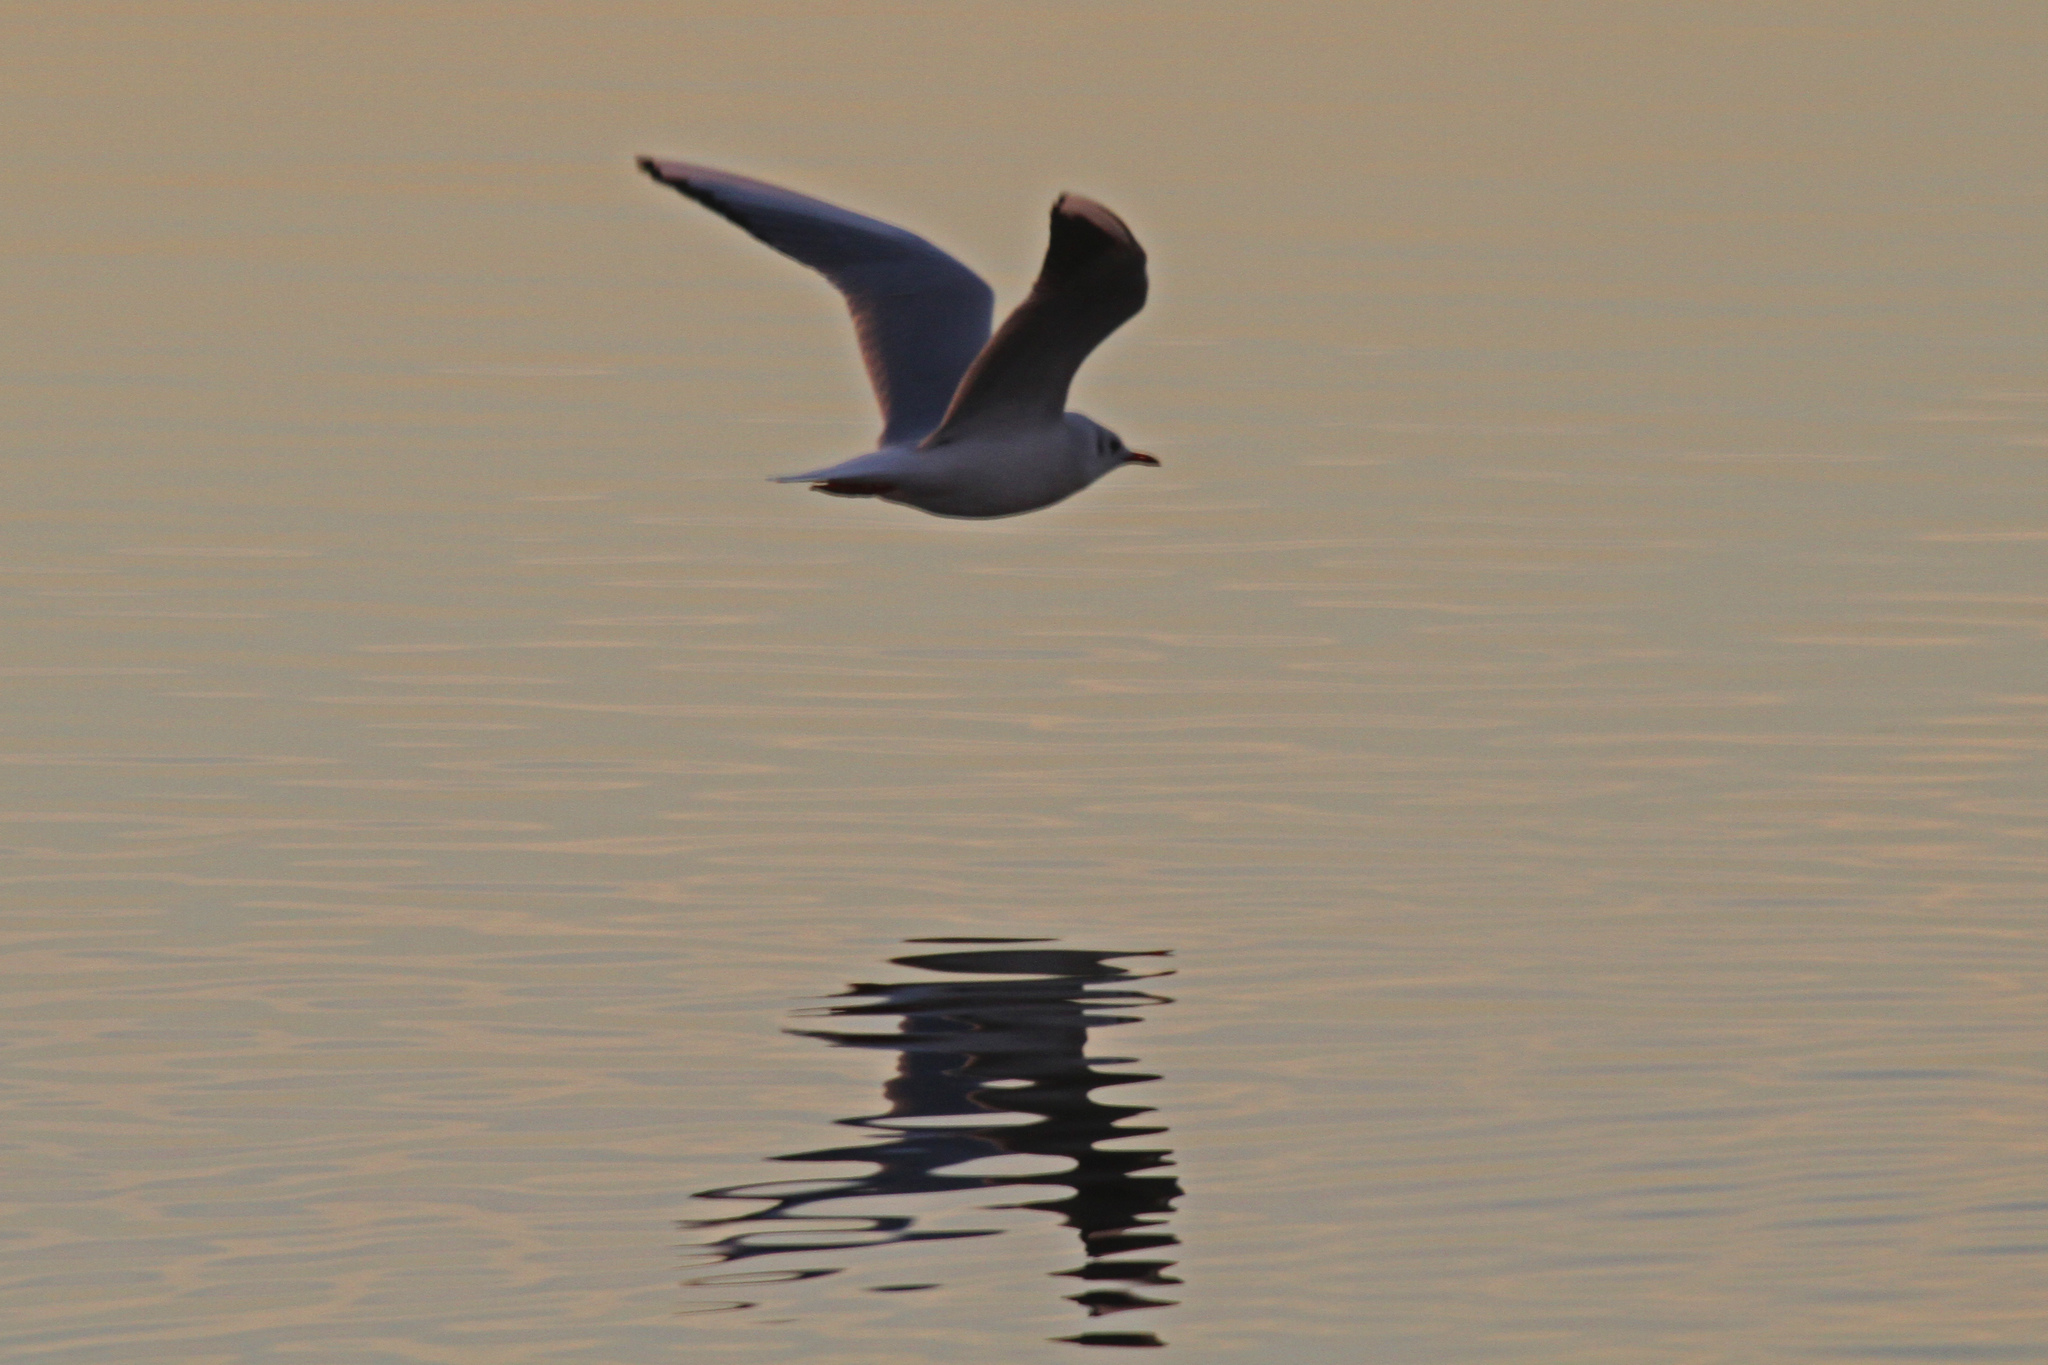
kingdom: Animalia
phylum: Chordata
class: Aves
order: Charadriiformes
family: Laridae
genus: Chroicocephalus
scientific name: Chroicocephalus ridibundus
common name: Black-headed gull
